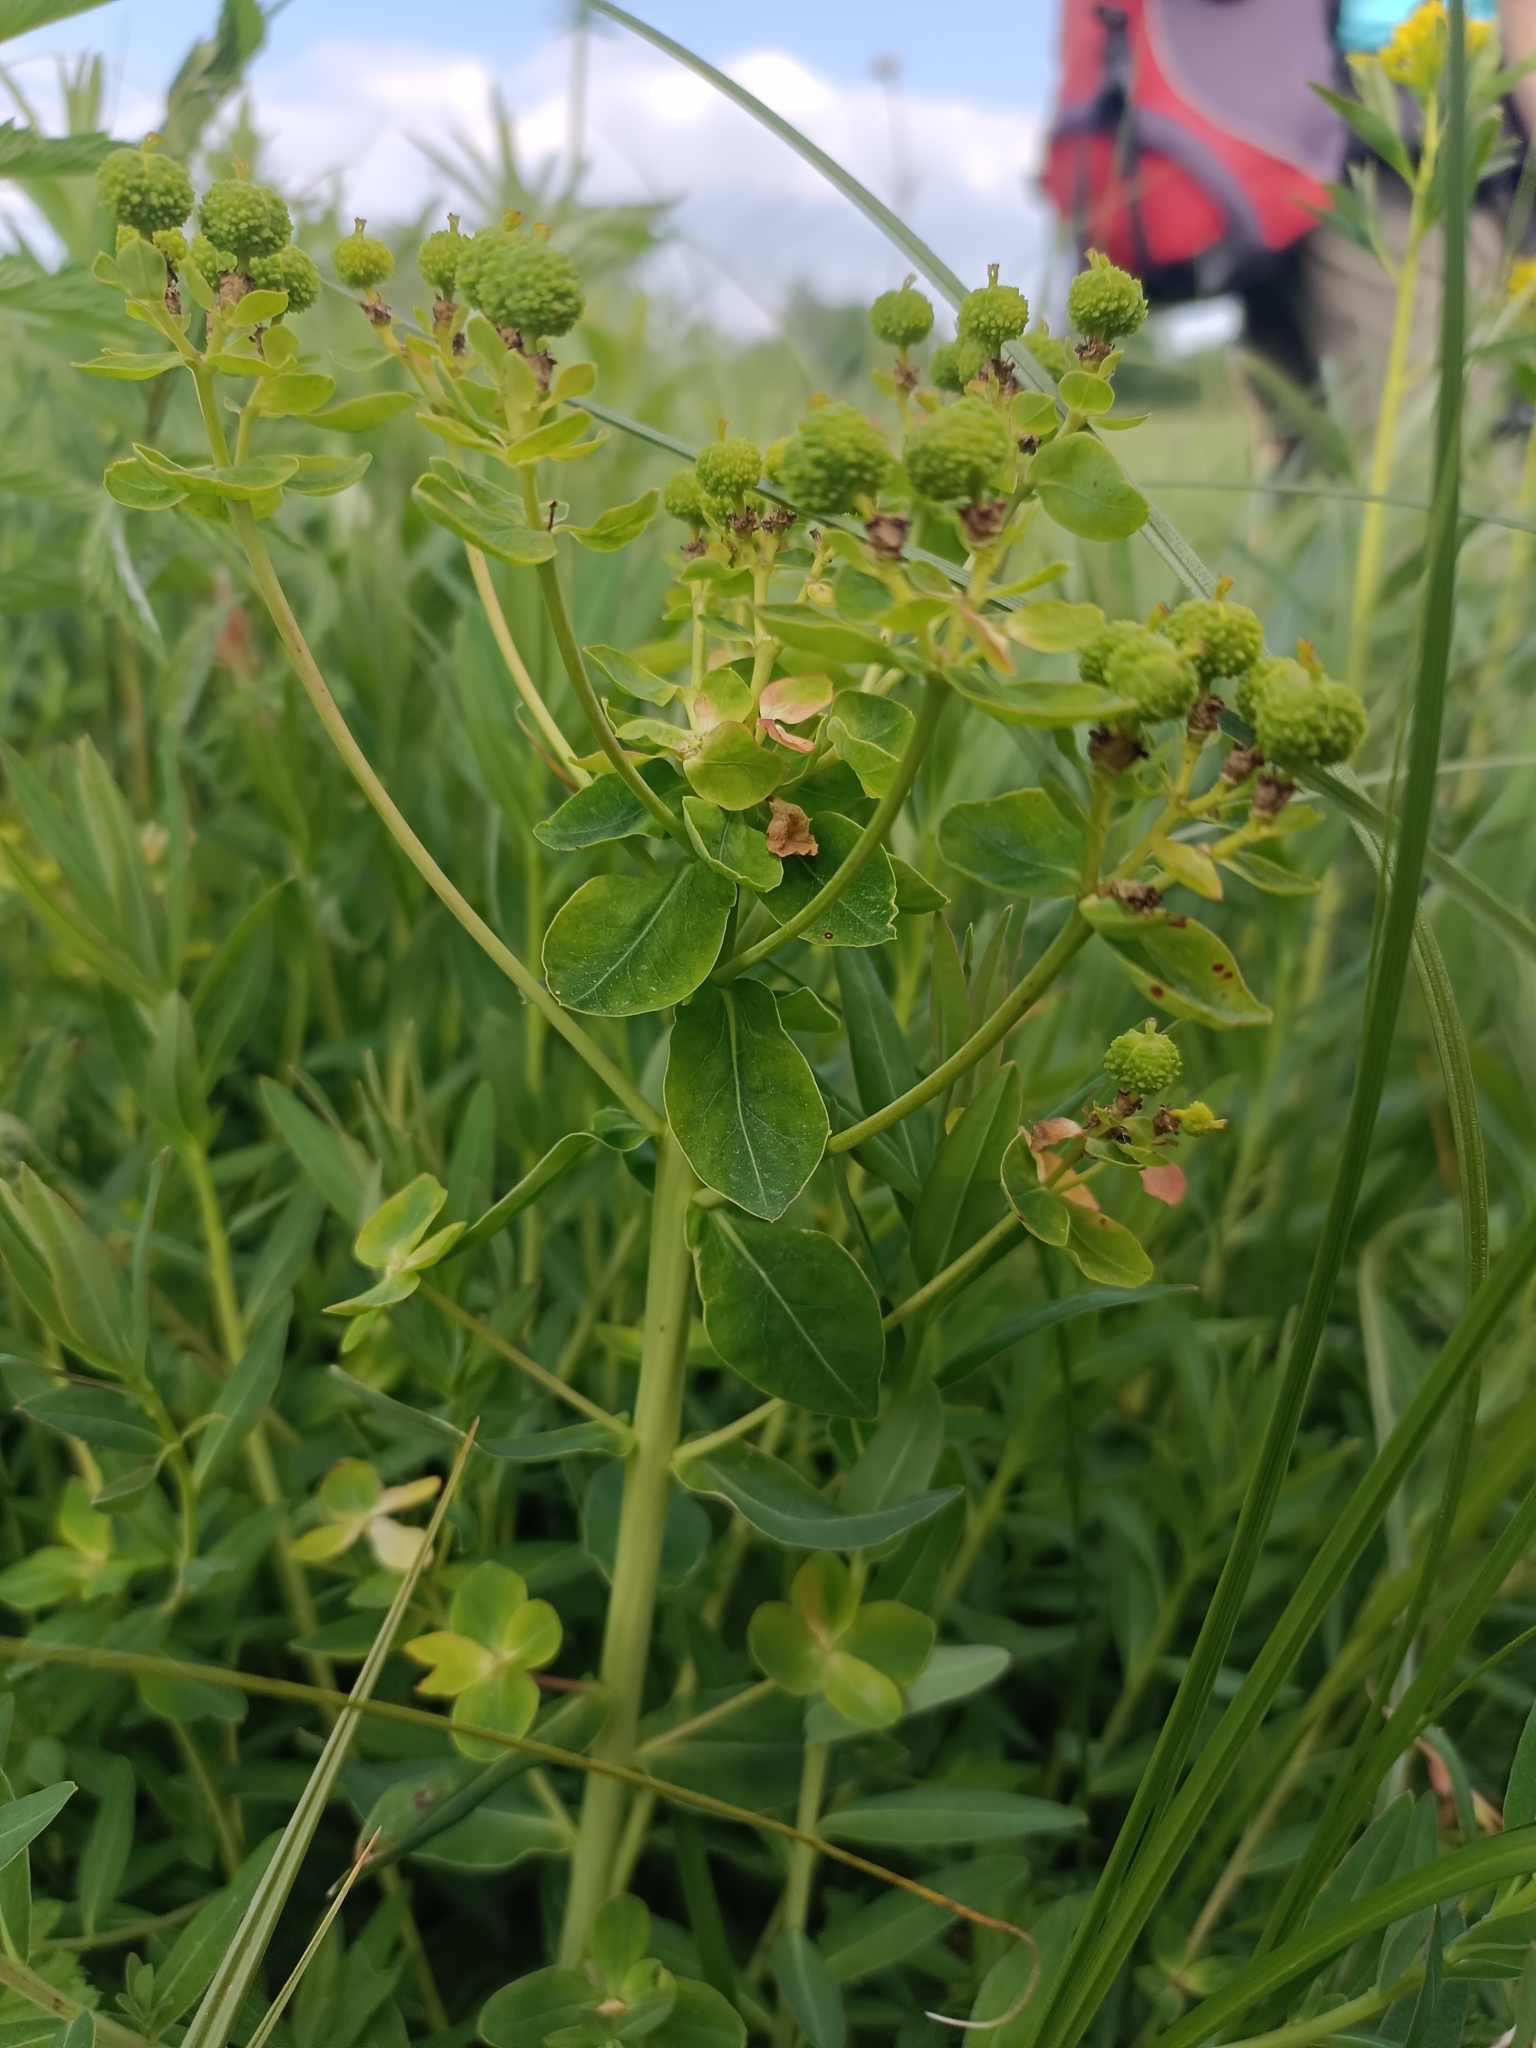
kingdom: Plantae
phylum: Tracheophyta
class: Magnoliopsida
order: Malpighiales
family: Euphorbiaceae
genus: Euphorbia
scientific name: Euphorbia palustris
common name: Marsh spurge
